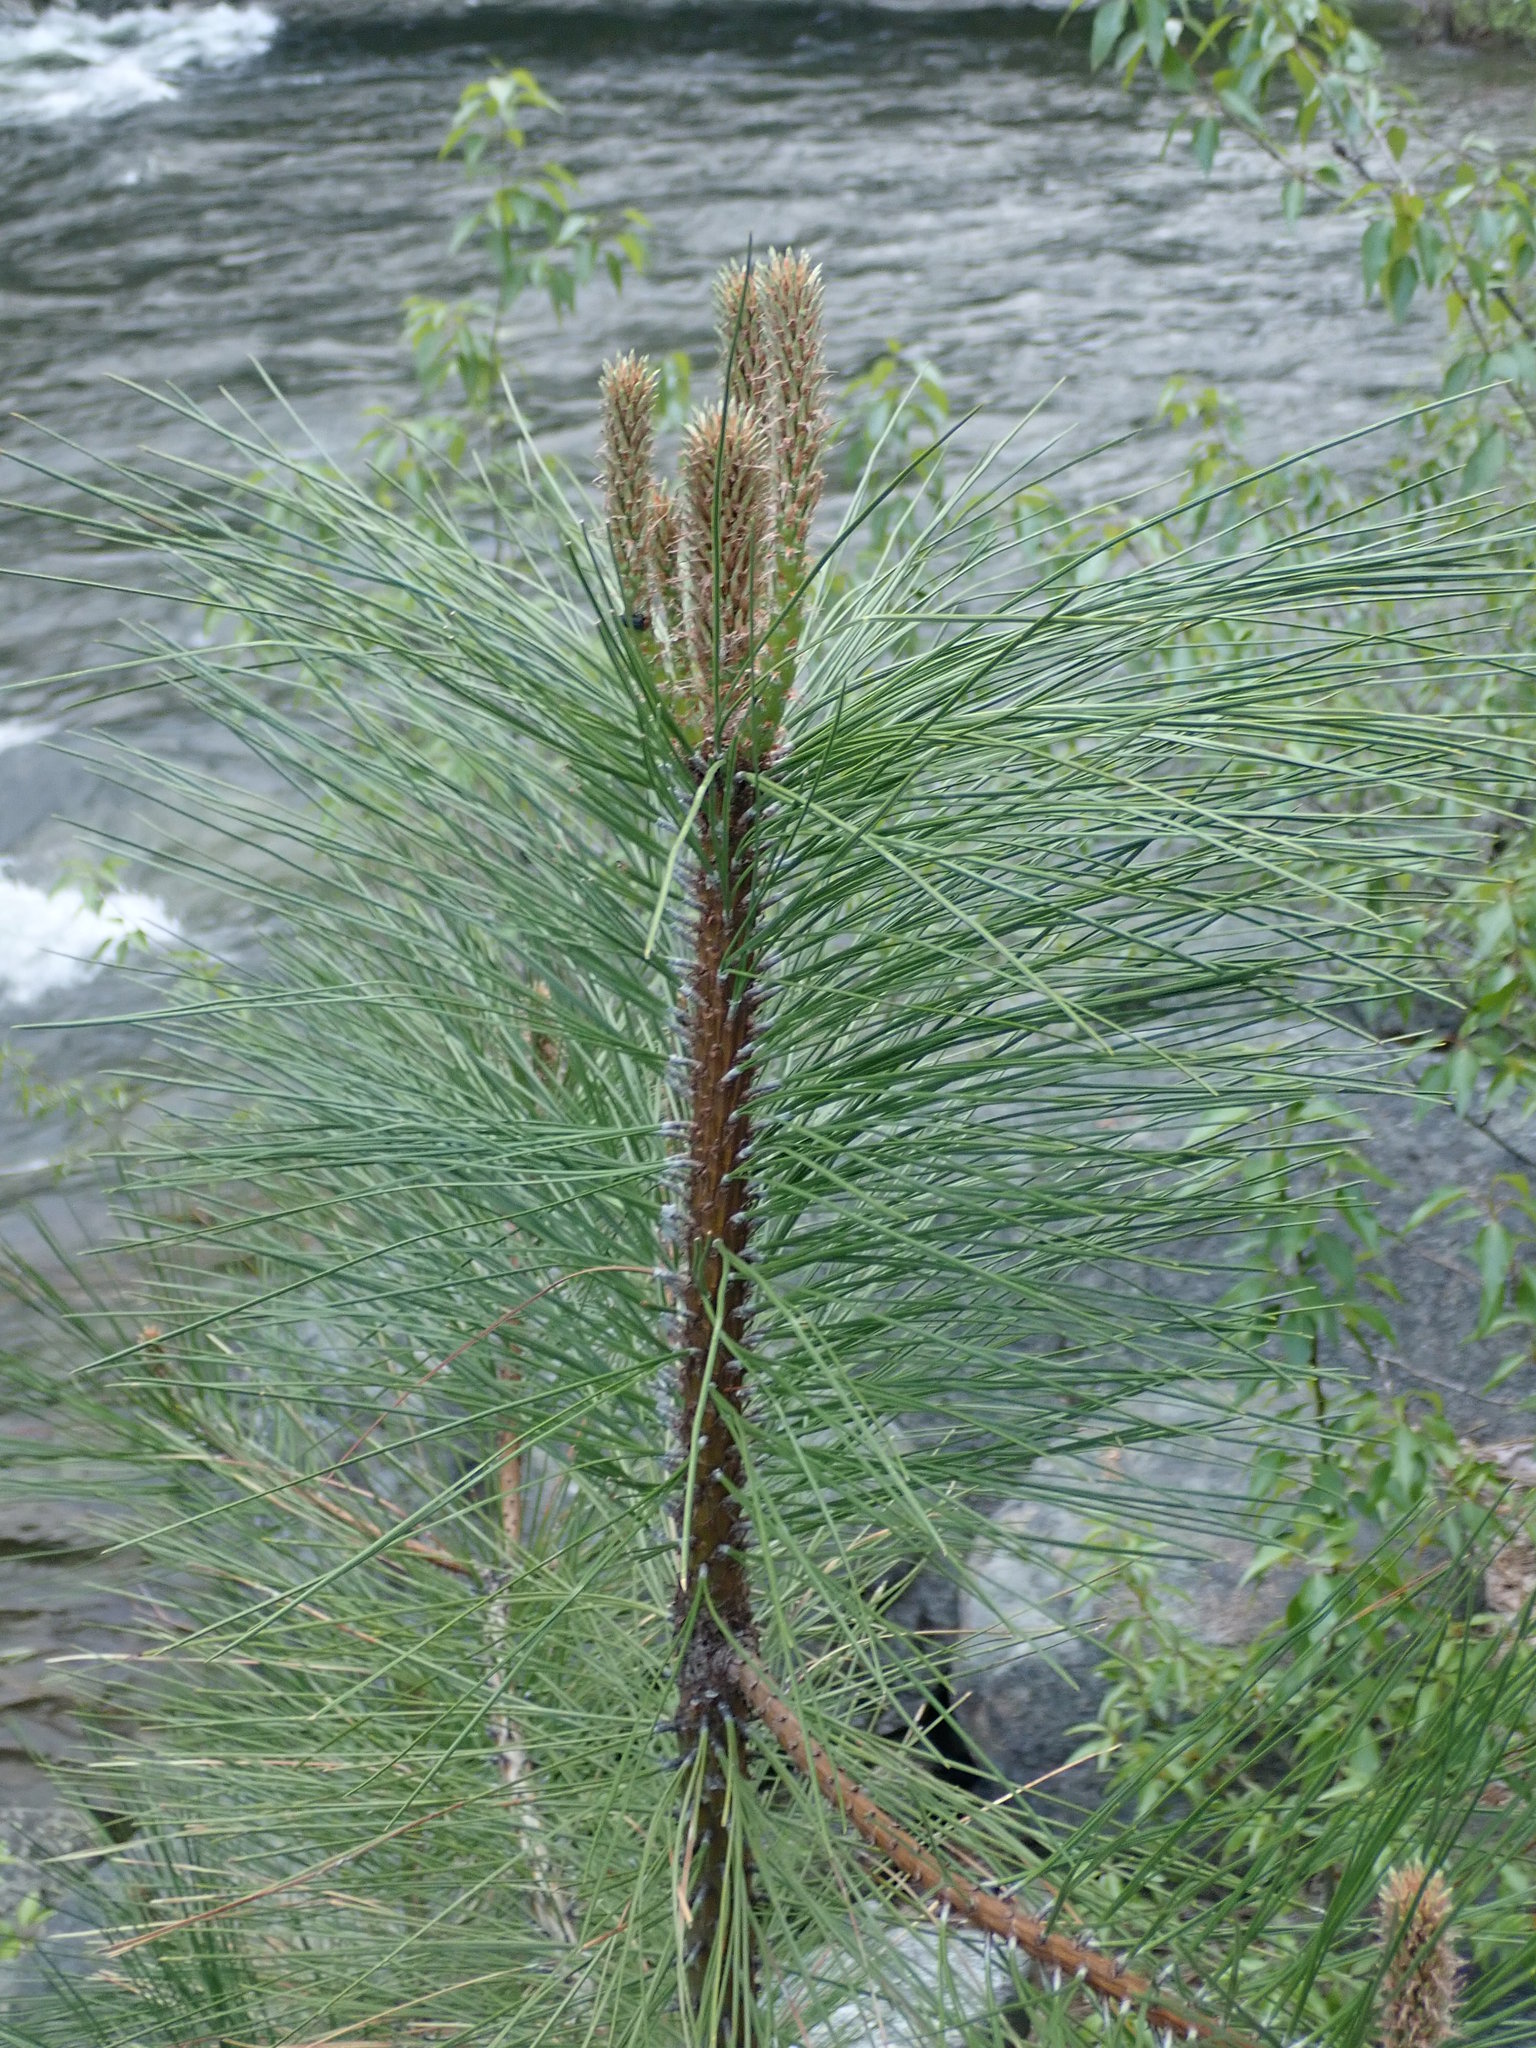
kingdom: Plantae
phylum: Tracheophyta
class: Pinopsida
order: Pinales
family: Pinaceae
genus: Pinus
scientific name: Pinus ponderosa
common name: Western yellow-pine
